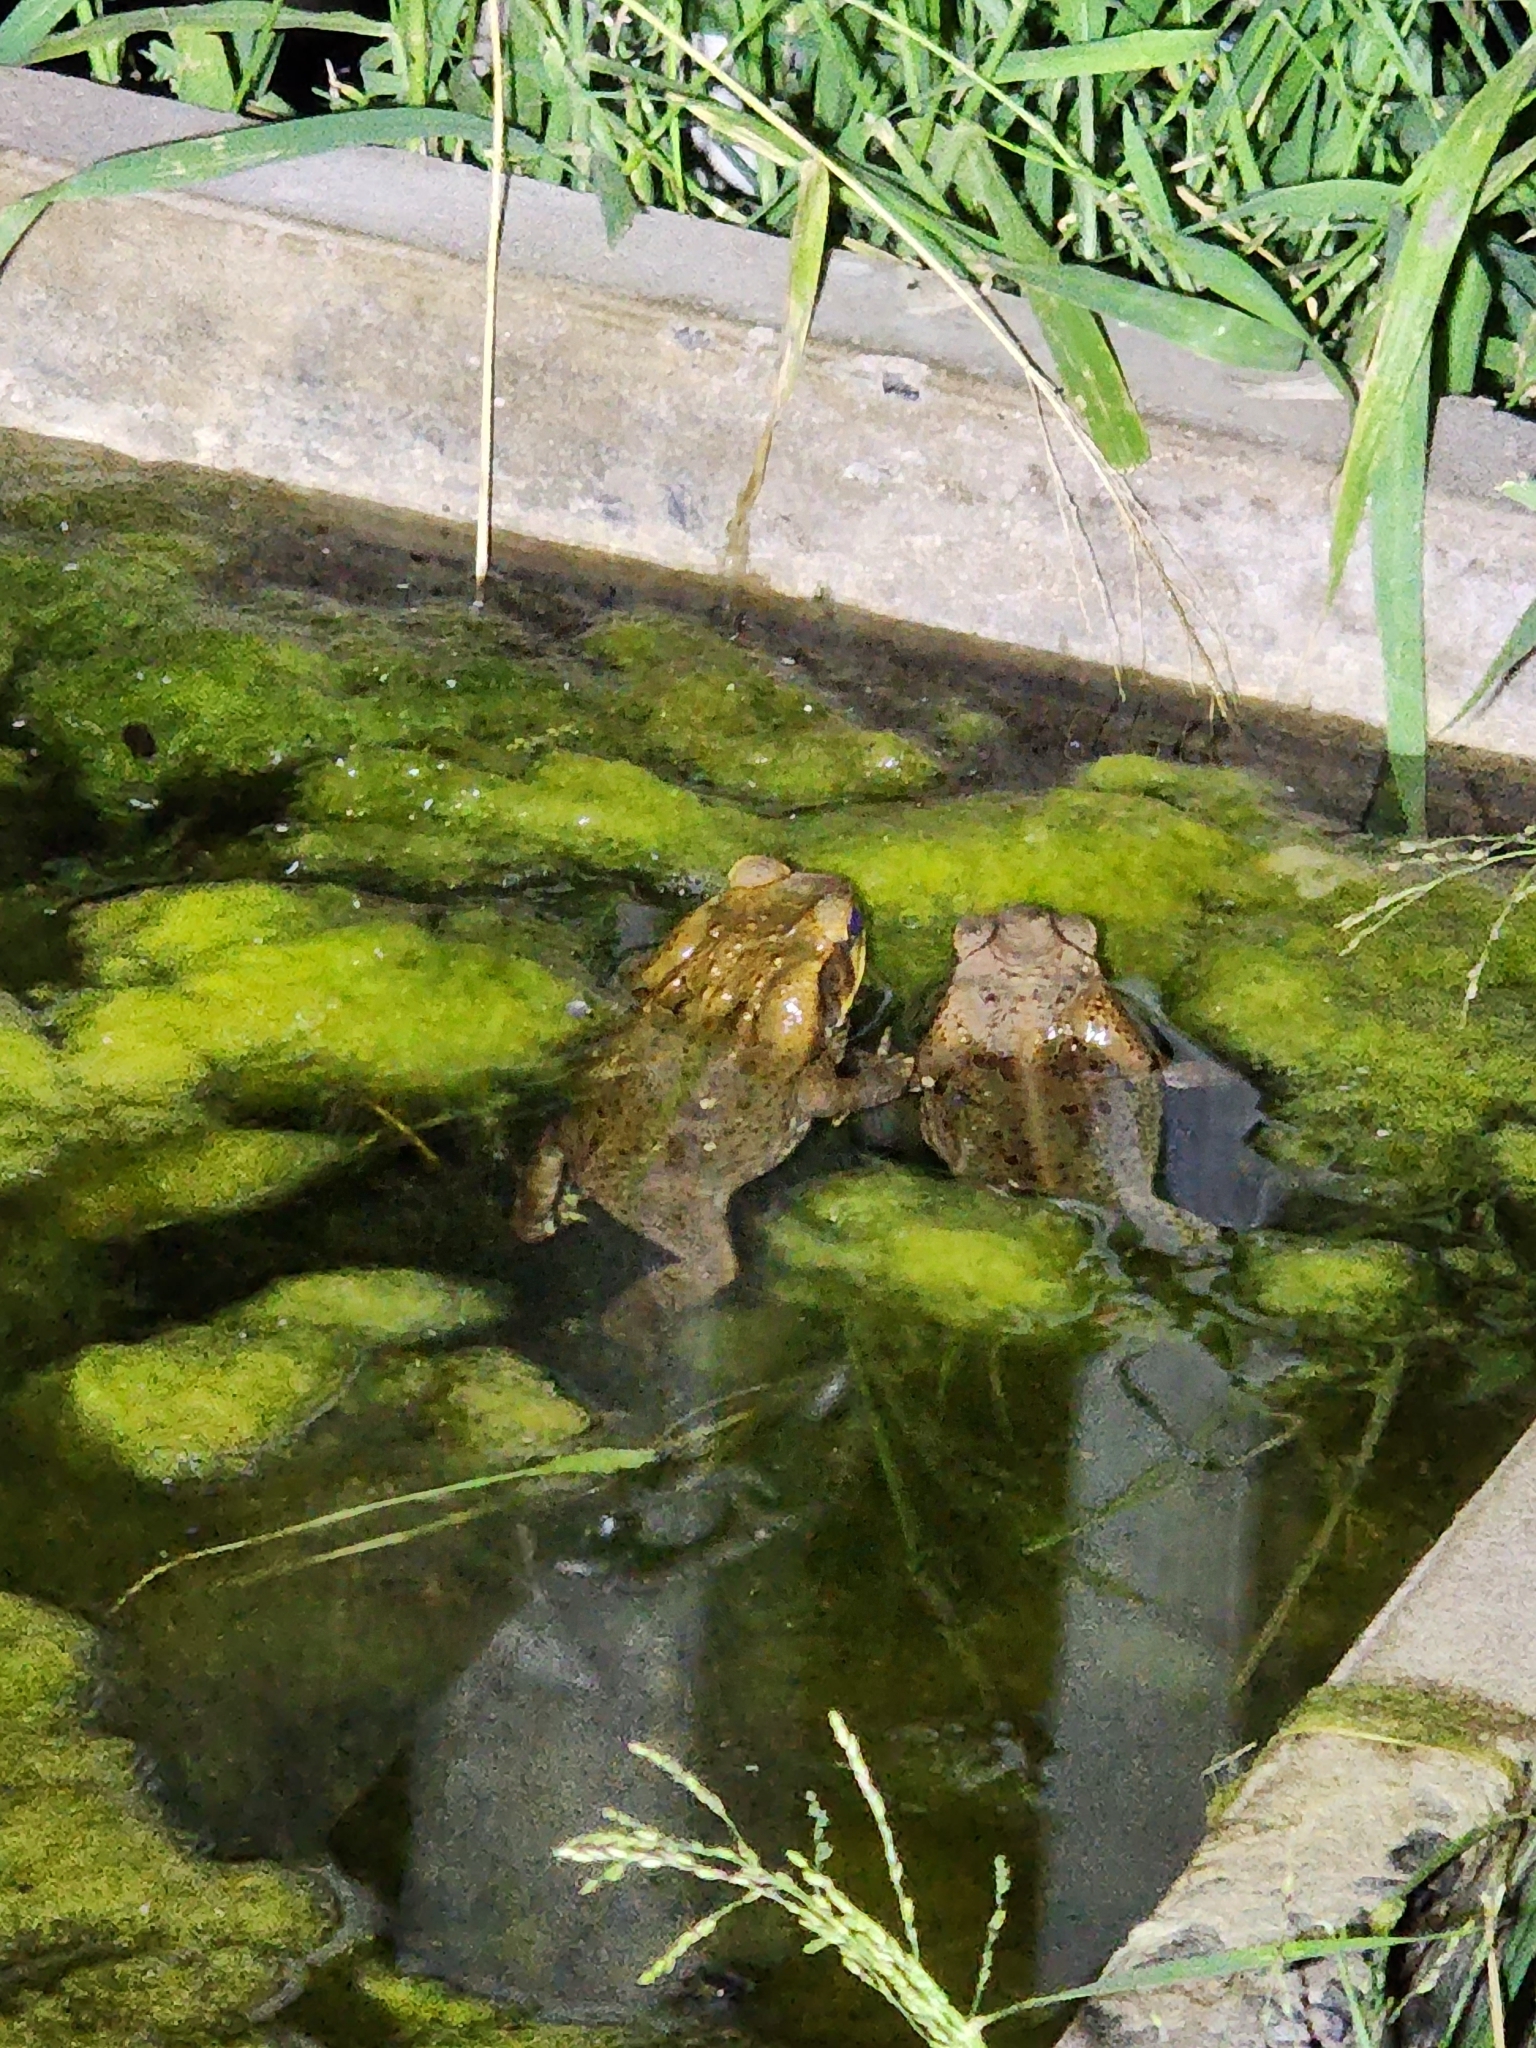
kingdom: Animalia
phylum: Chordata
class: Amphibia
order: Anura
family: Bufonidae
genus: Rhinella
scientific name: Rhinella marina
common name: Cane toad
